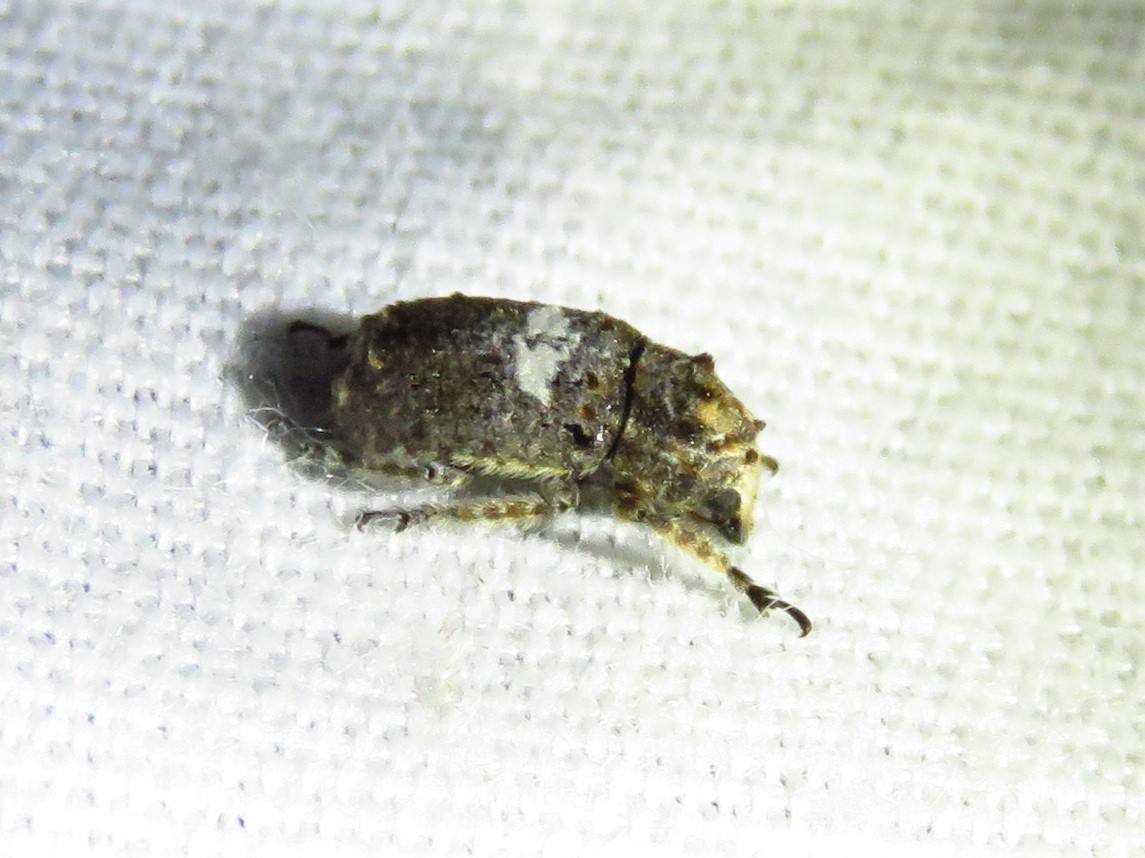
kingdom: Animalia
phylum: Arthropoda
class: Insecta
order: Coleoptera
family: Anthribidae
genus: Toxonotus
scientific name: Toxonotus cornutus
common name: Fungus weevil
